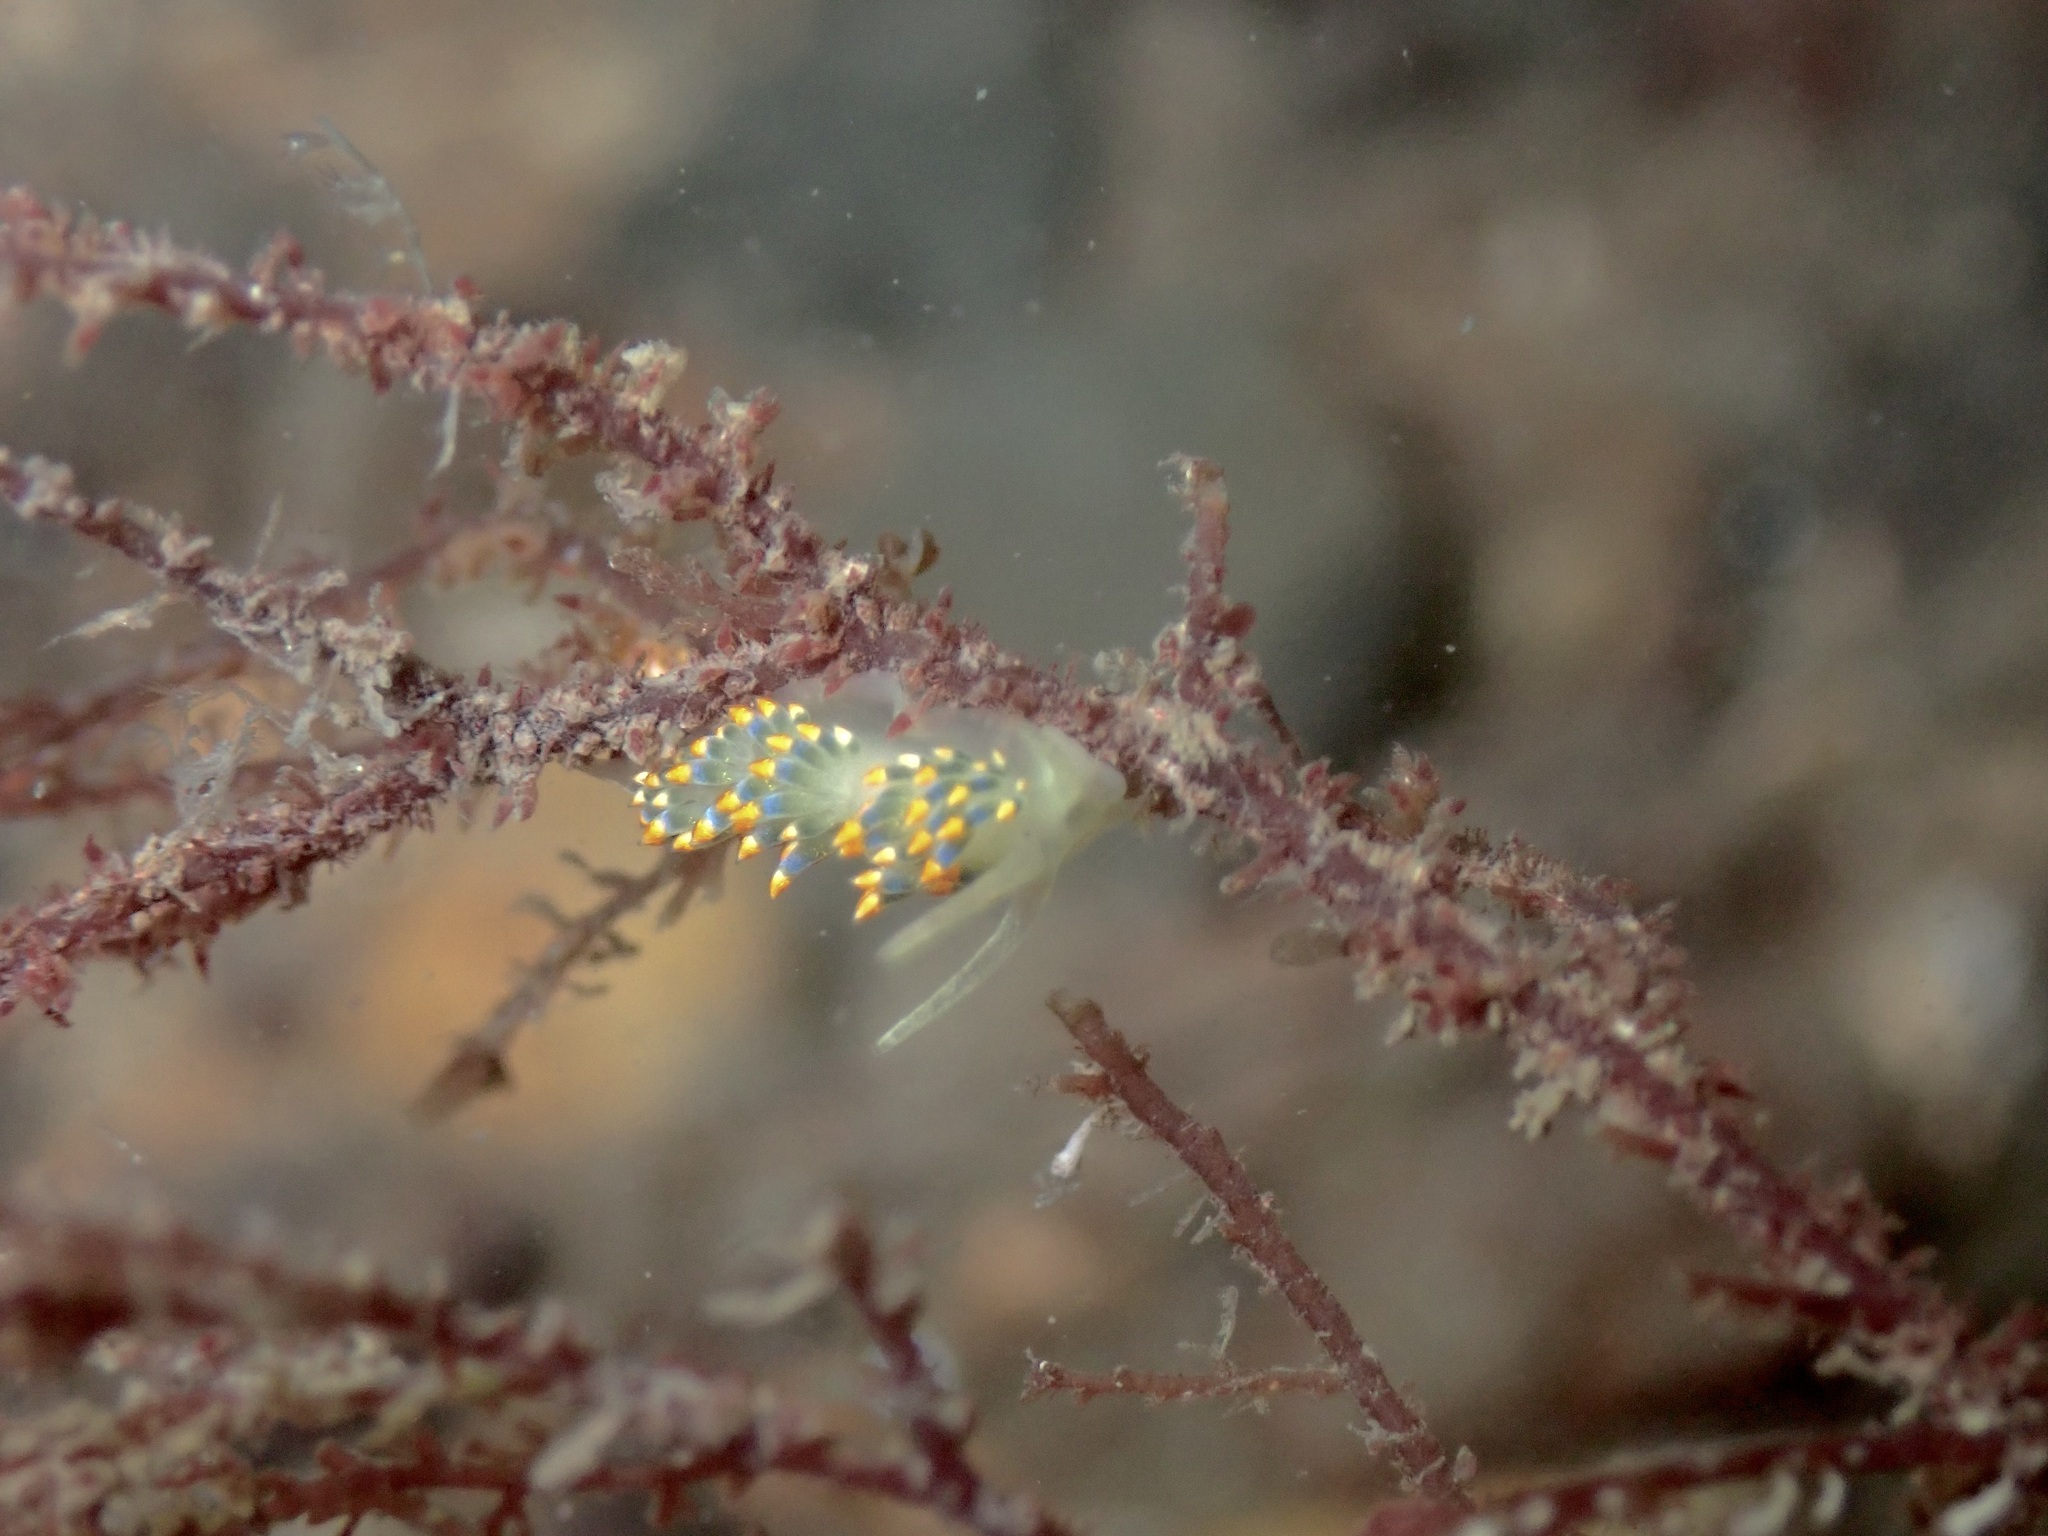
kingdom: Animalia
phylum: Mollusca
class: Gastropoda
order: Nudibranchia
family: Trinchesiidae
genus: Trinchesia
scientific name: Trinchesia caerulea
